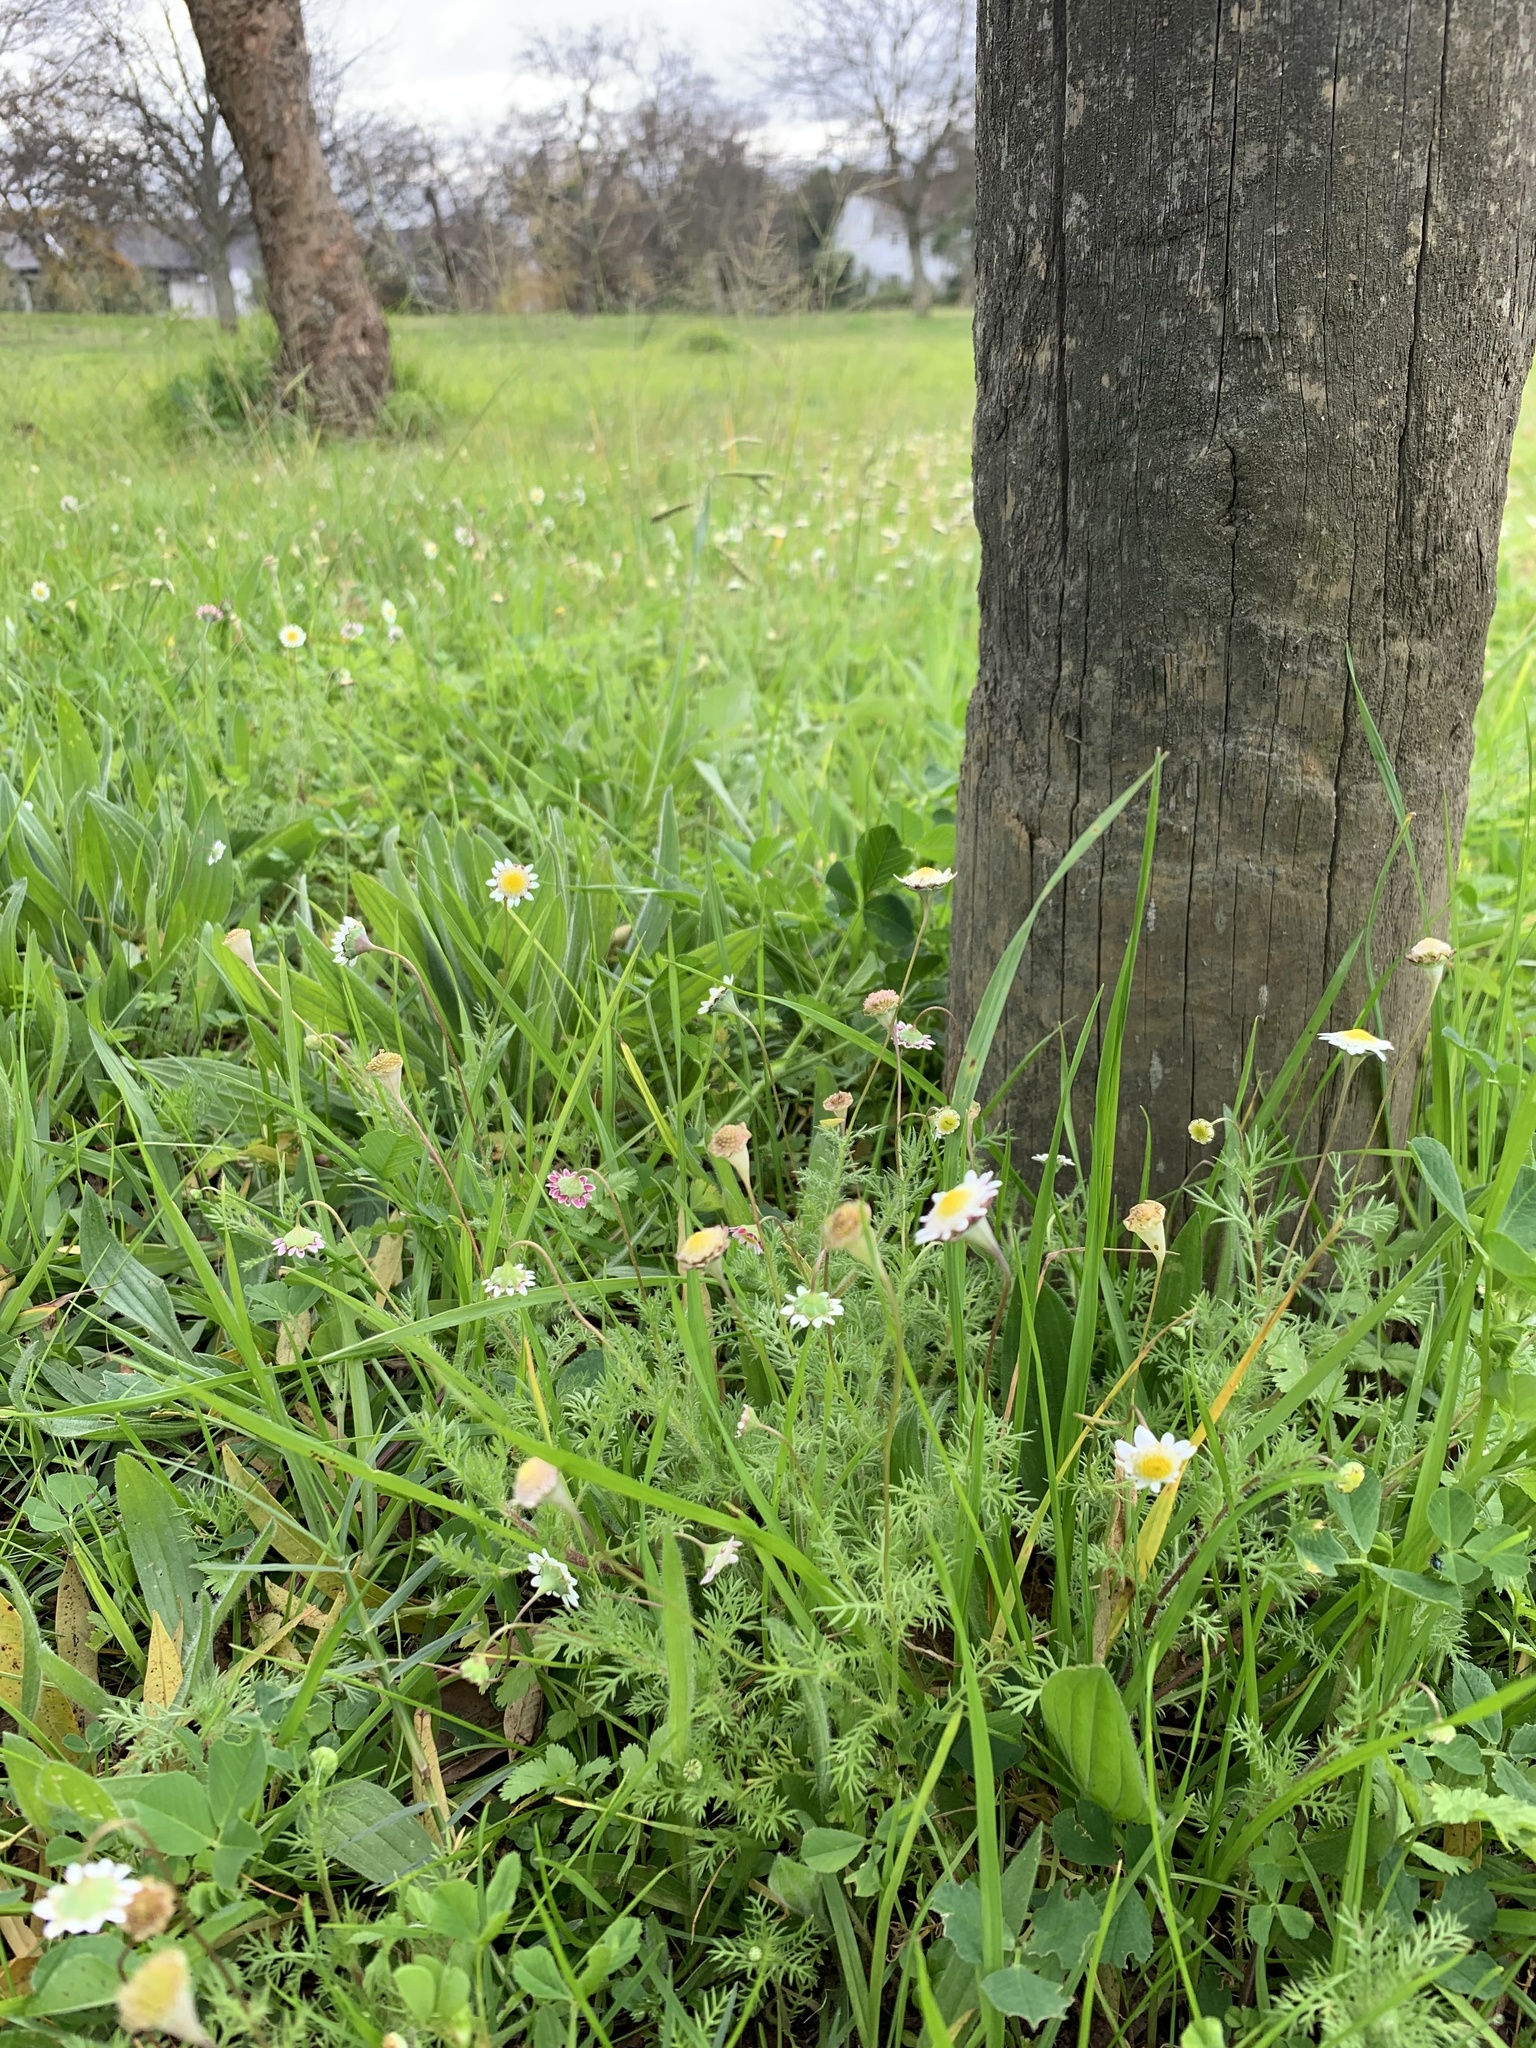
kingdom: Plantae
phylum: Tracheophyta
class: Magnoliopsida
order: Asterales
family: Asteraceae
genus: Cotula
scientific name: Cotula turbinata
